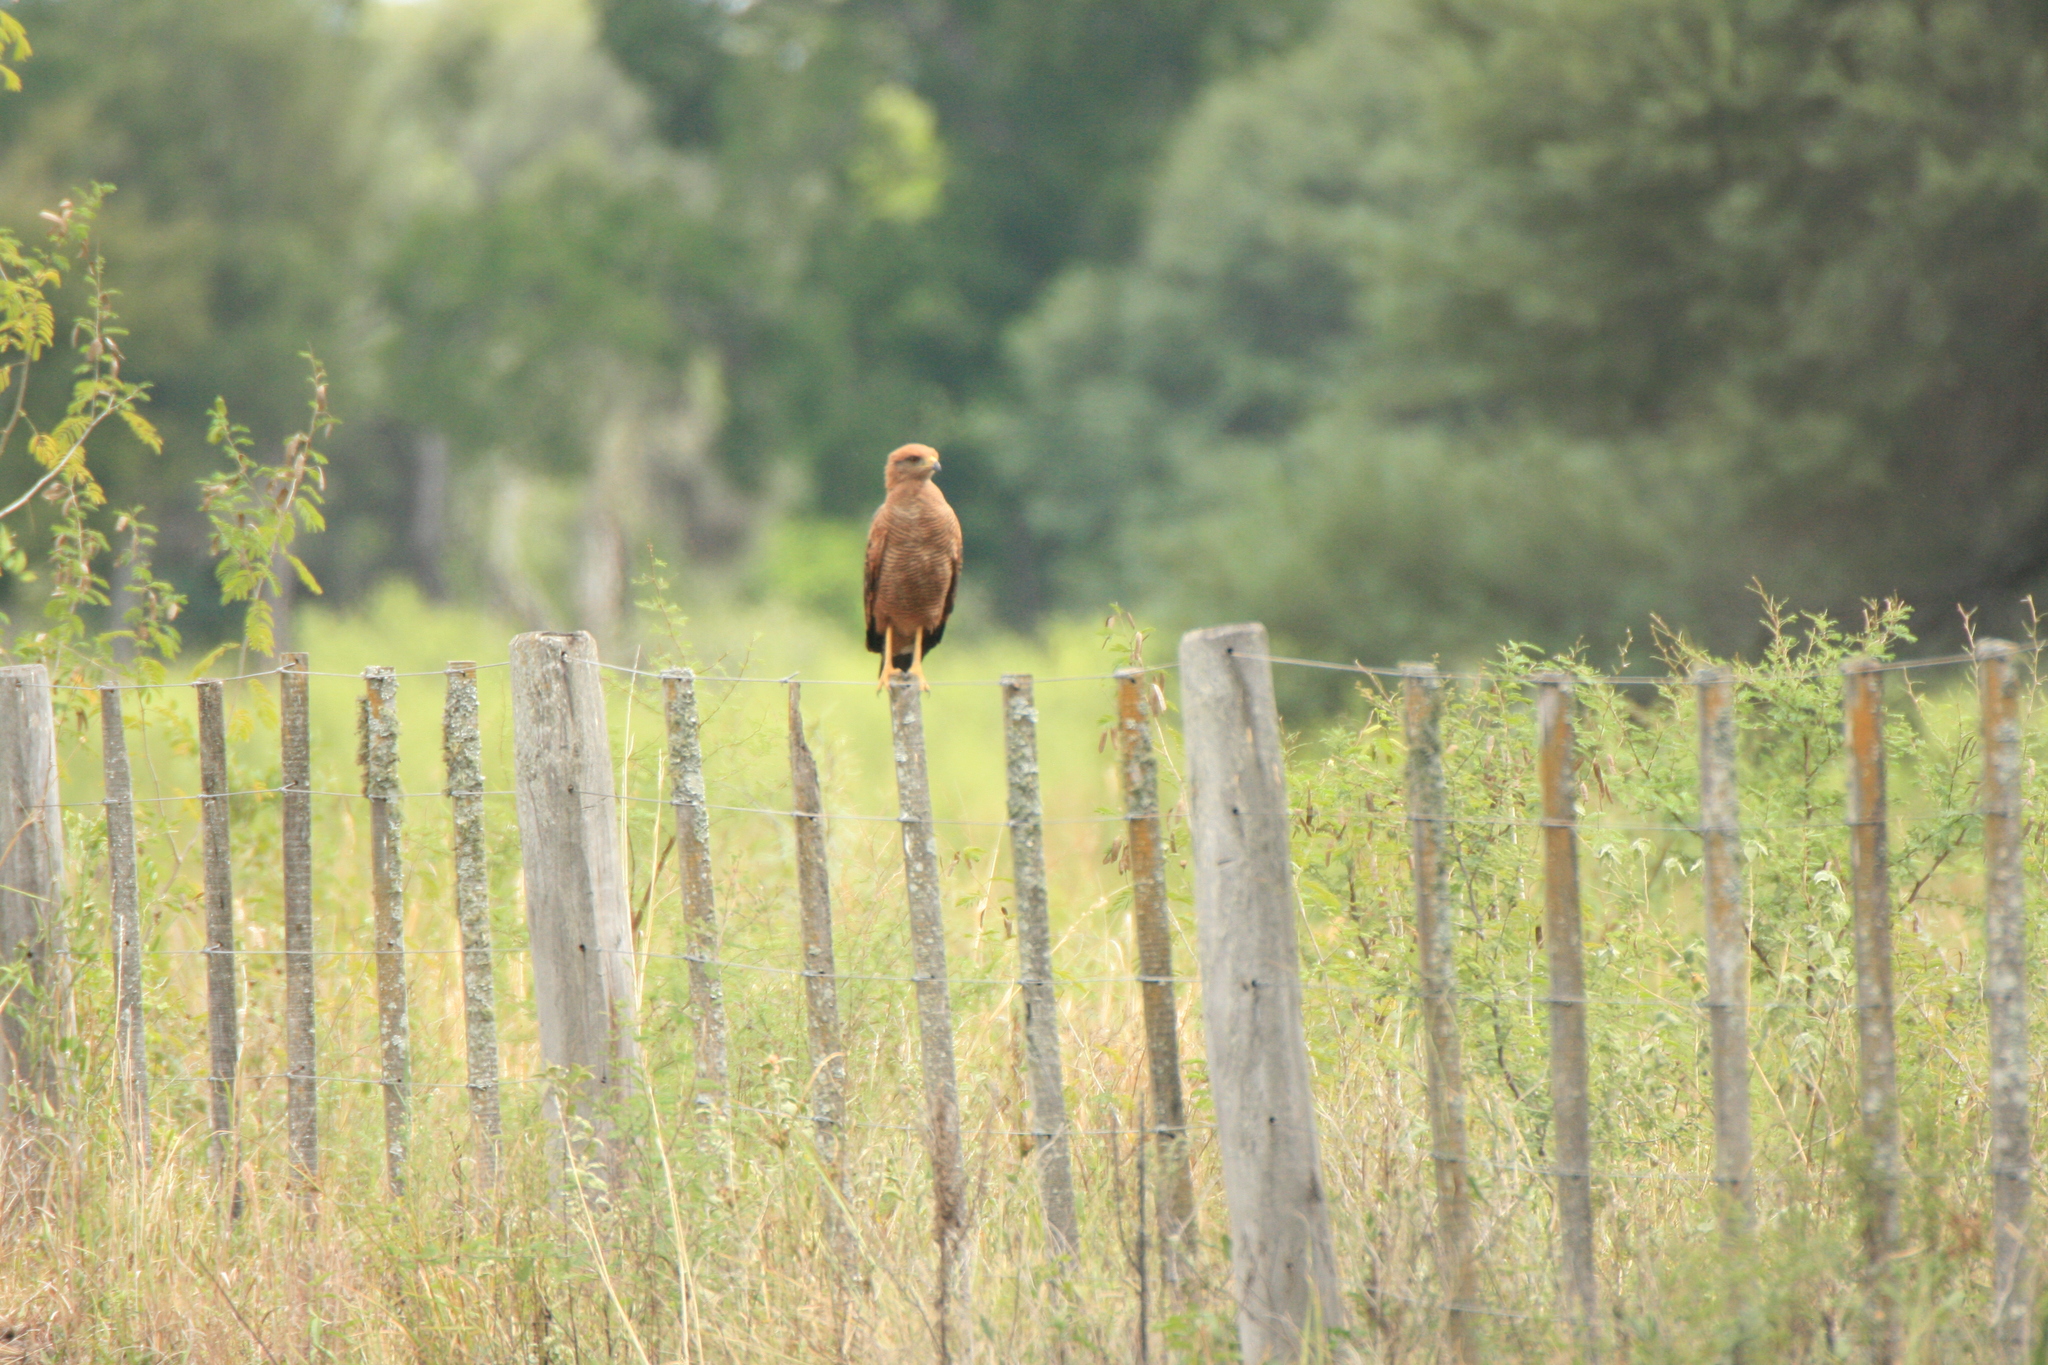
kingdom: Animalia
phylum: Chordata
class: Aves
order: Accipitriformes
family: Accipitridae
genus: Buteogallus
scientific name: Buteogallus meridionalis
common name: Savanna hawk
